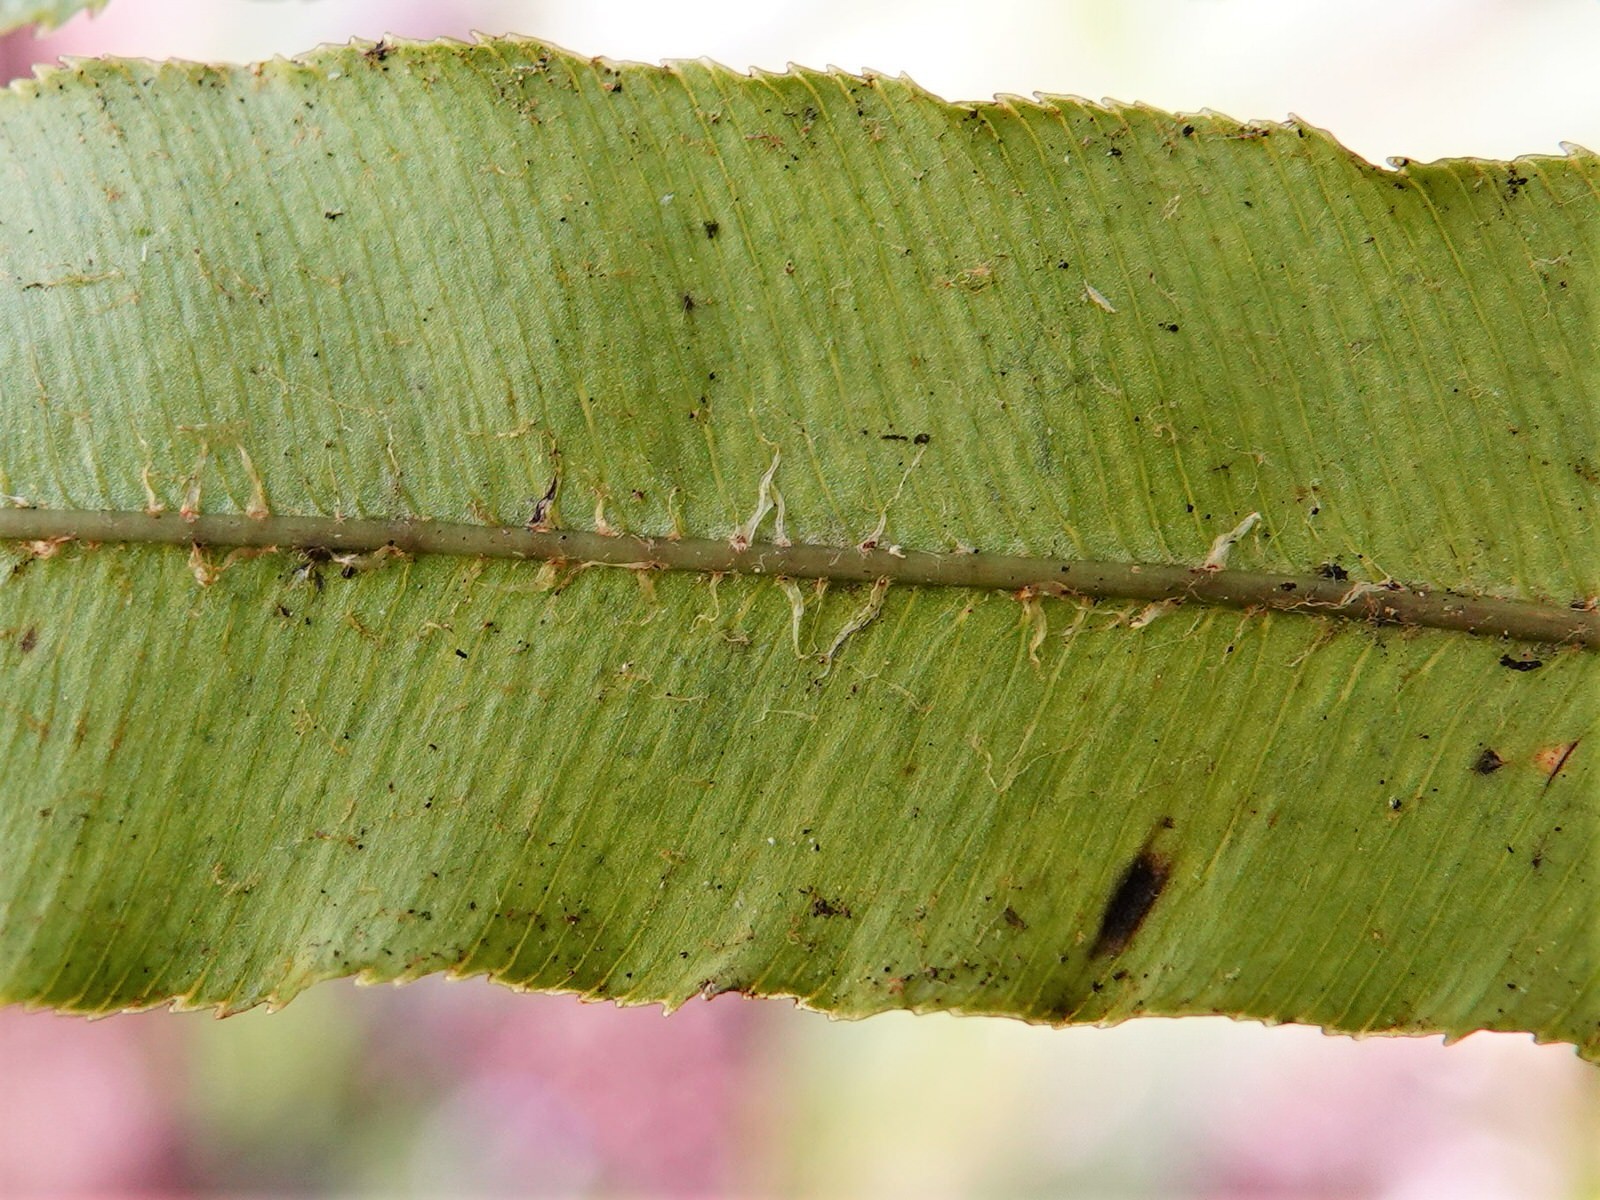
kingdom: Plantae
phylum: Tracheophyta
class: Polypodiopsida
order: Polypodiales
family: Blechnaceae
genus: Parablechnum
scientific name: Parablechnum novae-zelandiae
